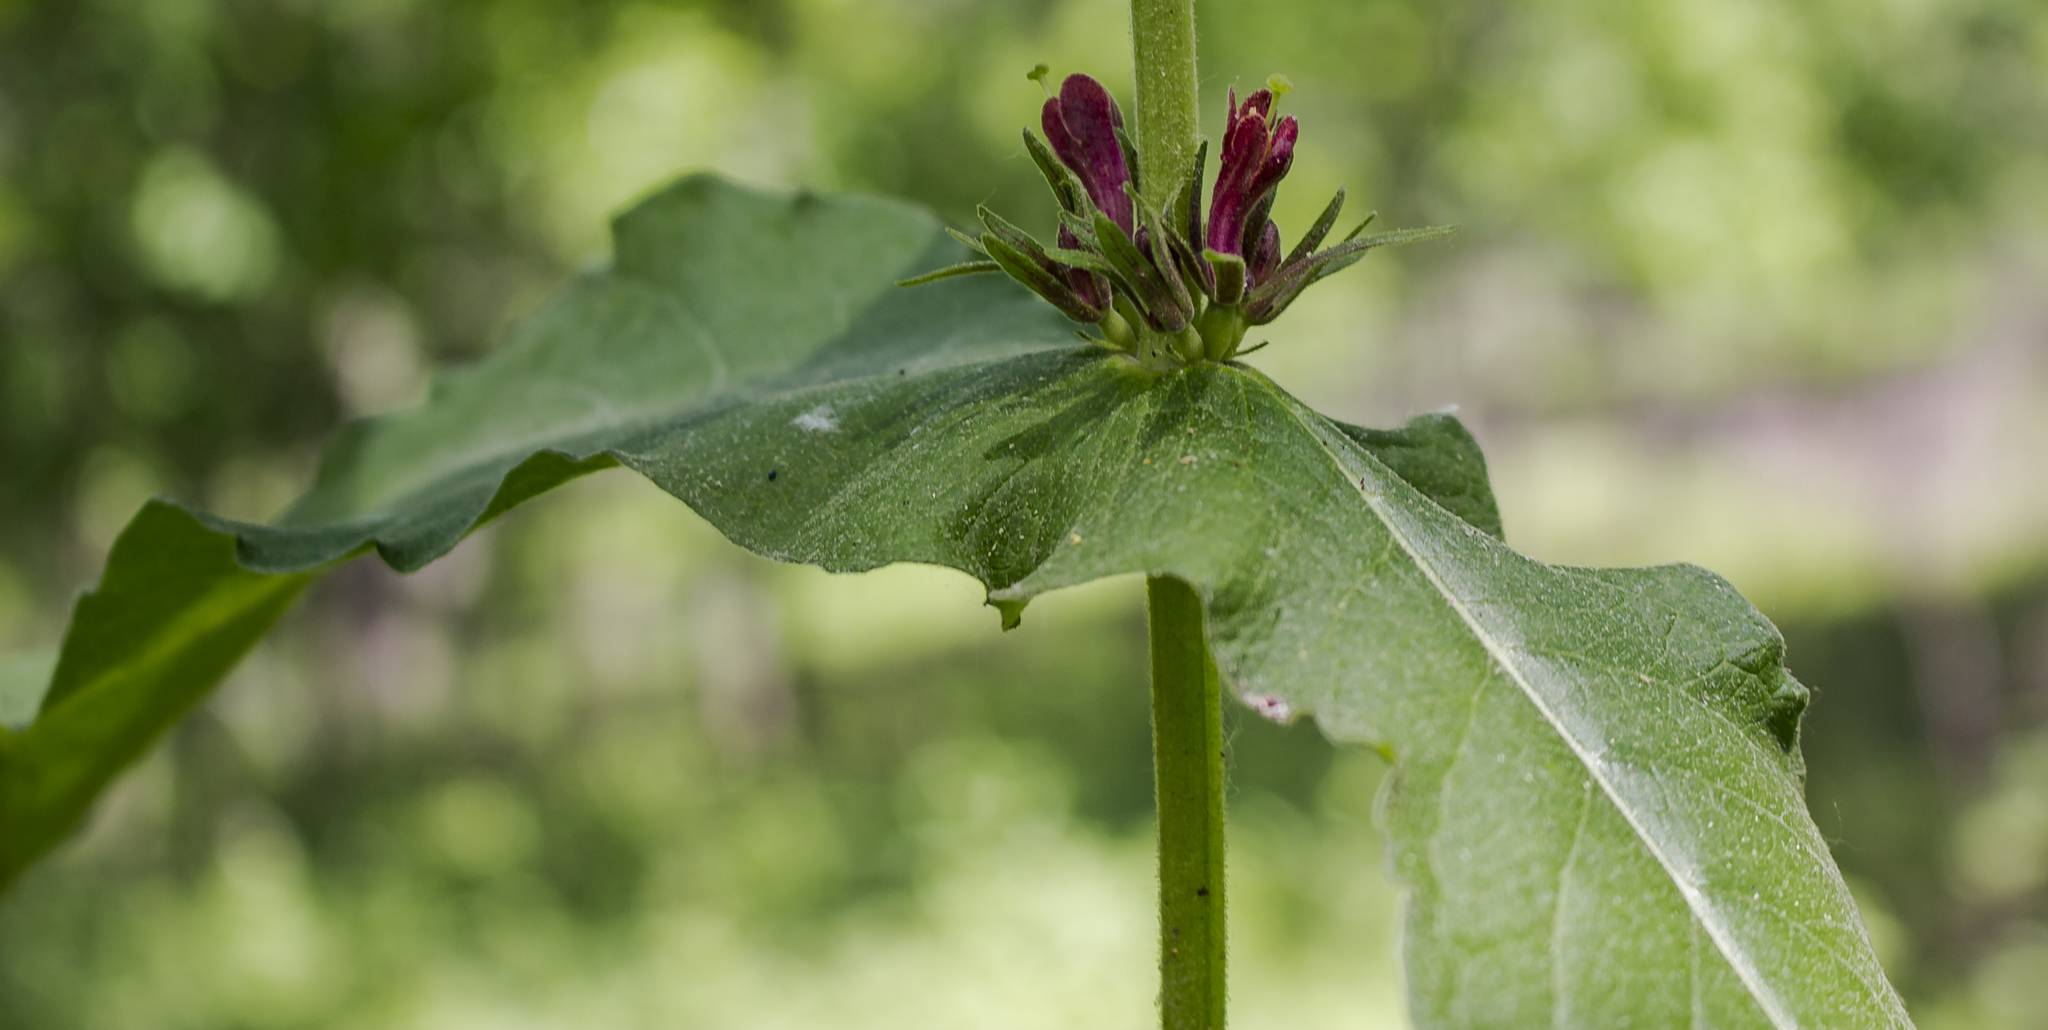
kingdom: Plantae
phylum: Tracheophyta
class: Magnoliopsida
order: Dipsacales
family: Caprifoliaceae
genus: Triosteum
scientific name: Triosteum perfoliatum
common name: Common horse-gentian
